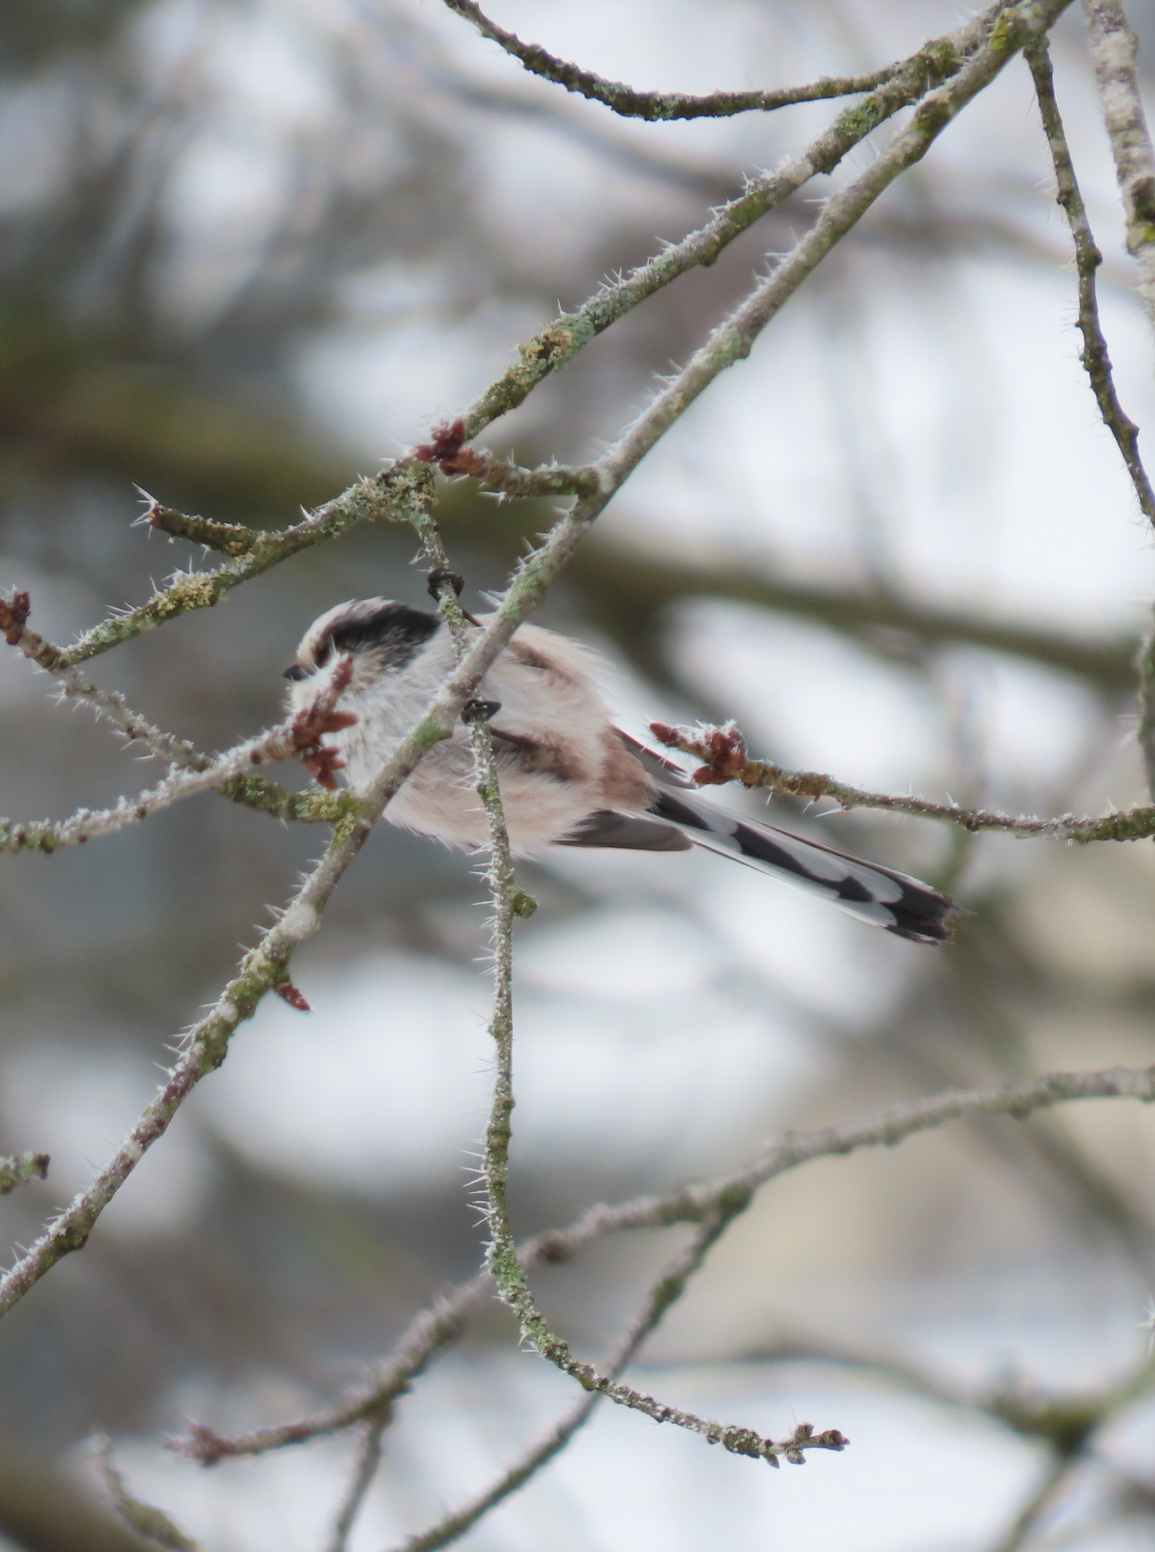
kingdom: Animalia
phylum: Chordata
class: Aves
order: Passeriformes
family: Aegithalidae
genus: Aegithalos
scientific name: Aegithalos caudatus
